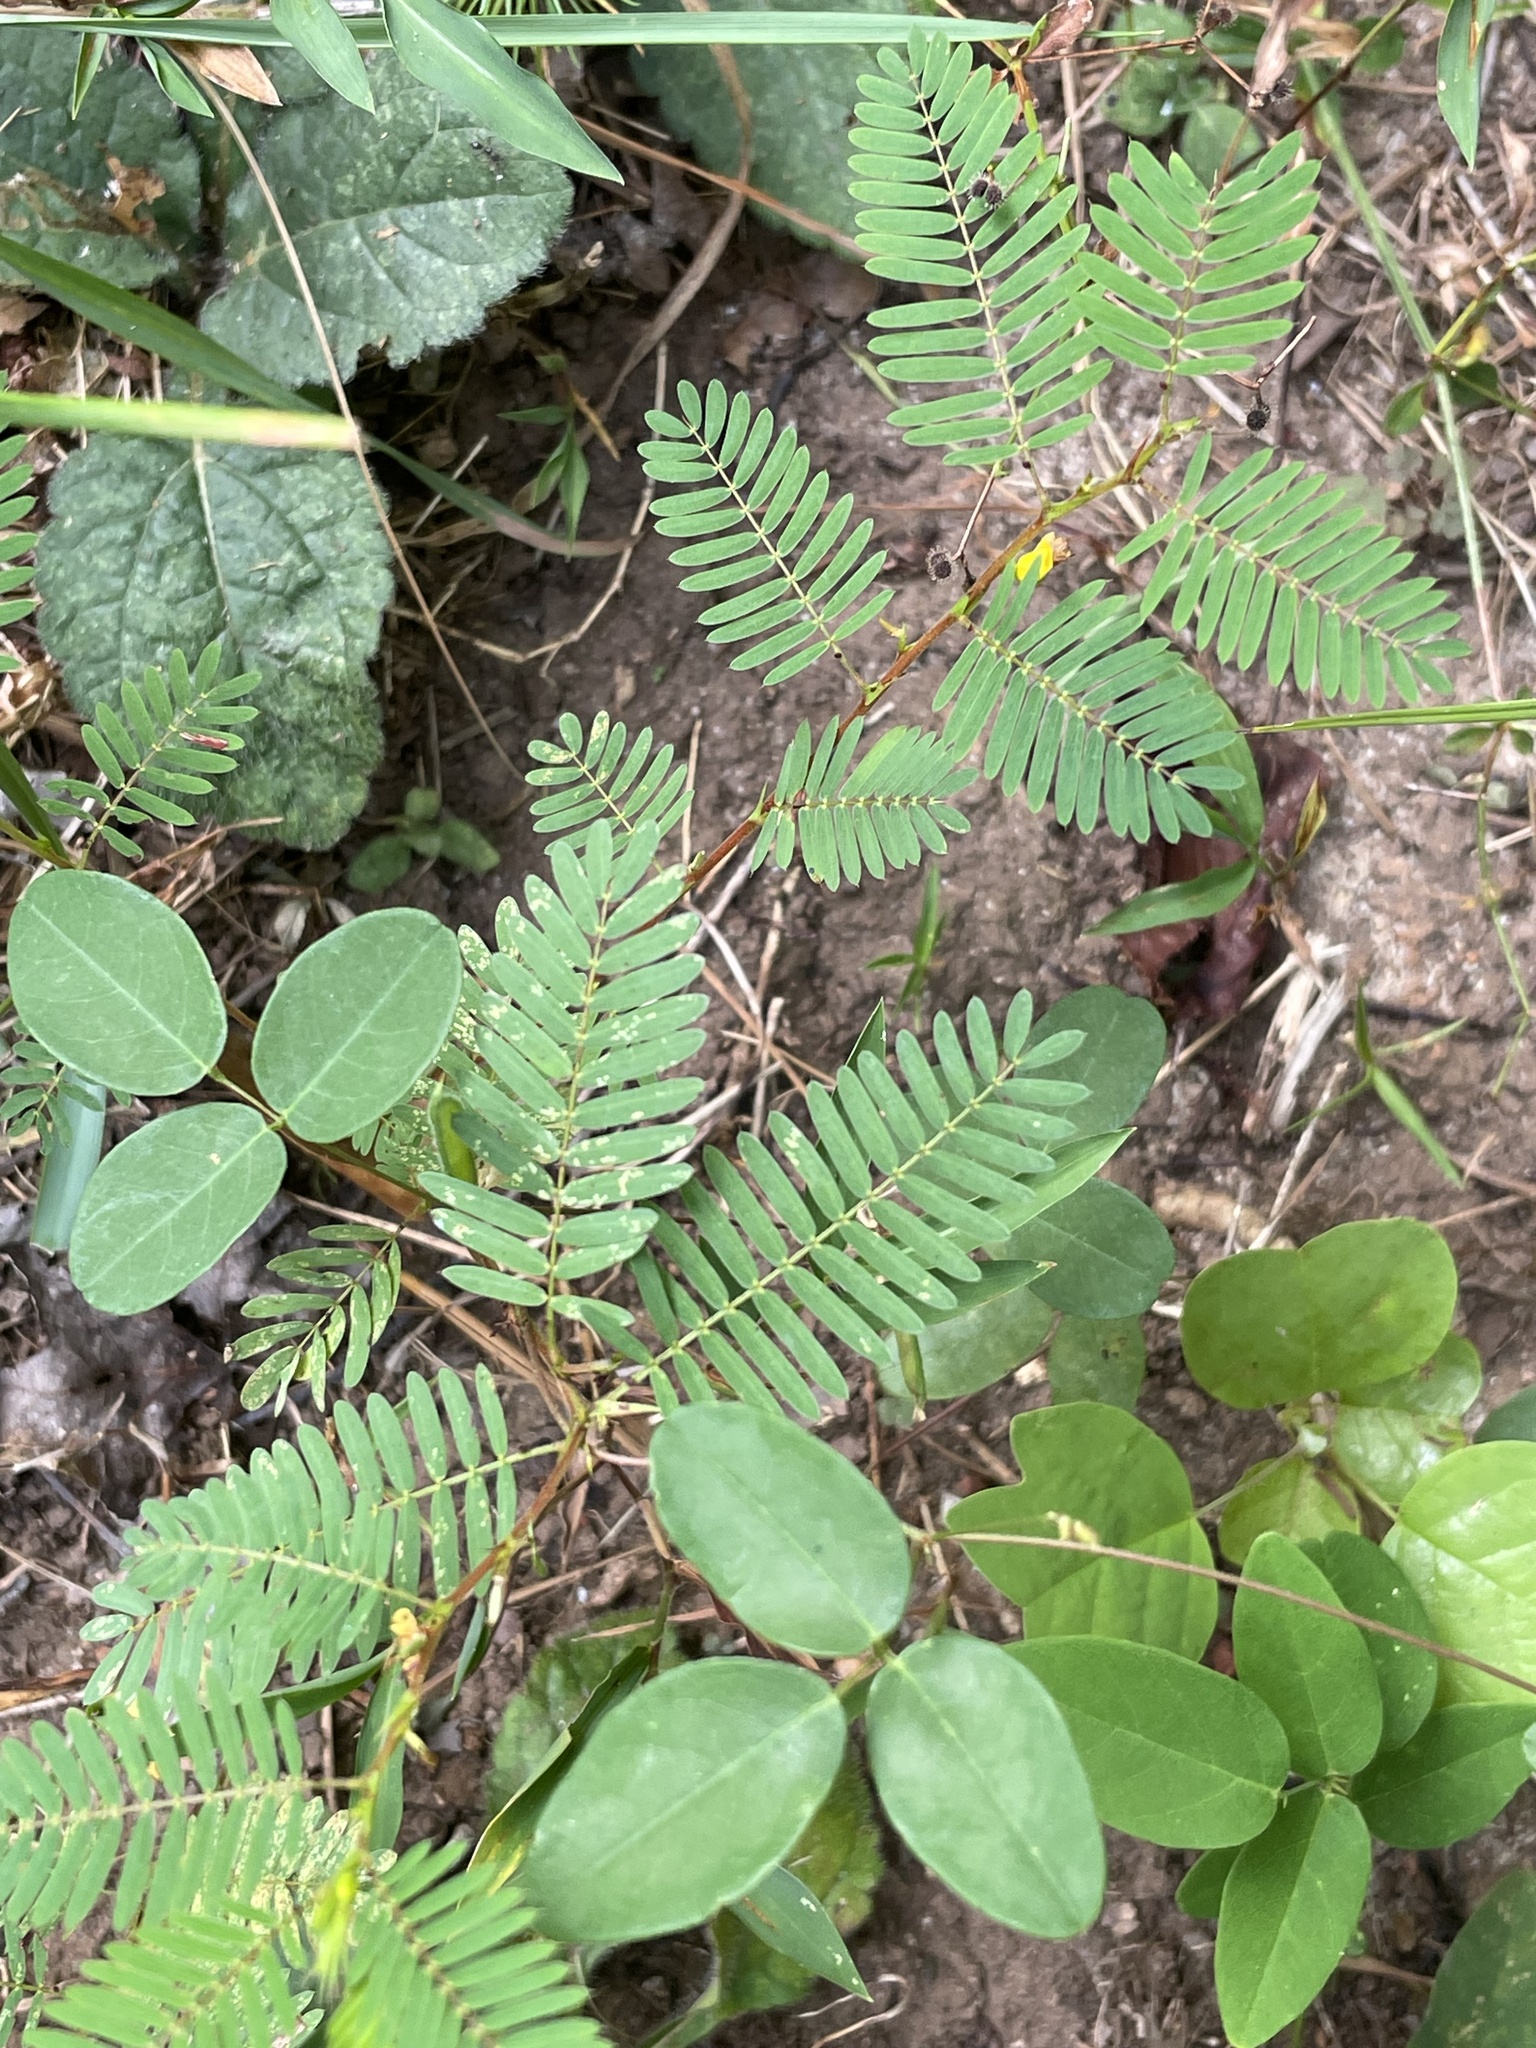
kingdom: Plantae
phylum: Tracheophyta
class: Magnoliopsida
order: Fabales
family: Fabaceae
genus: Chamaecrista
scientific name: Chamaecrista nictitans
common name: Sensitive cassia
